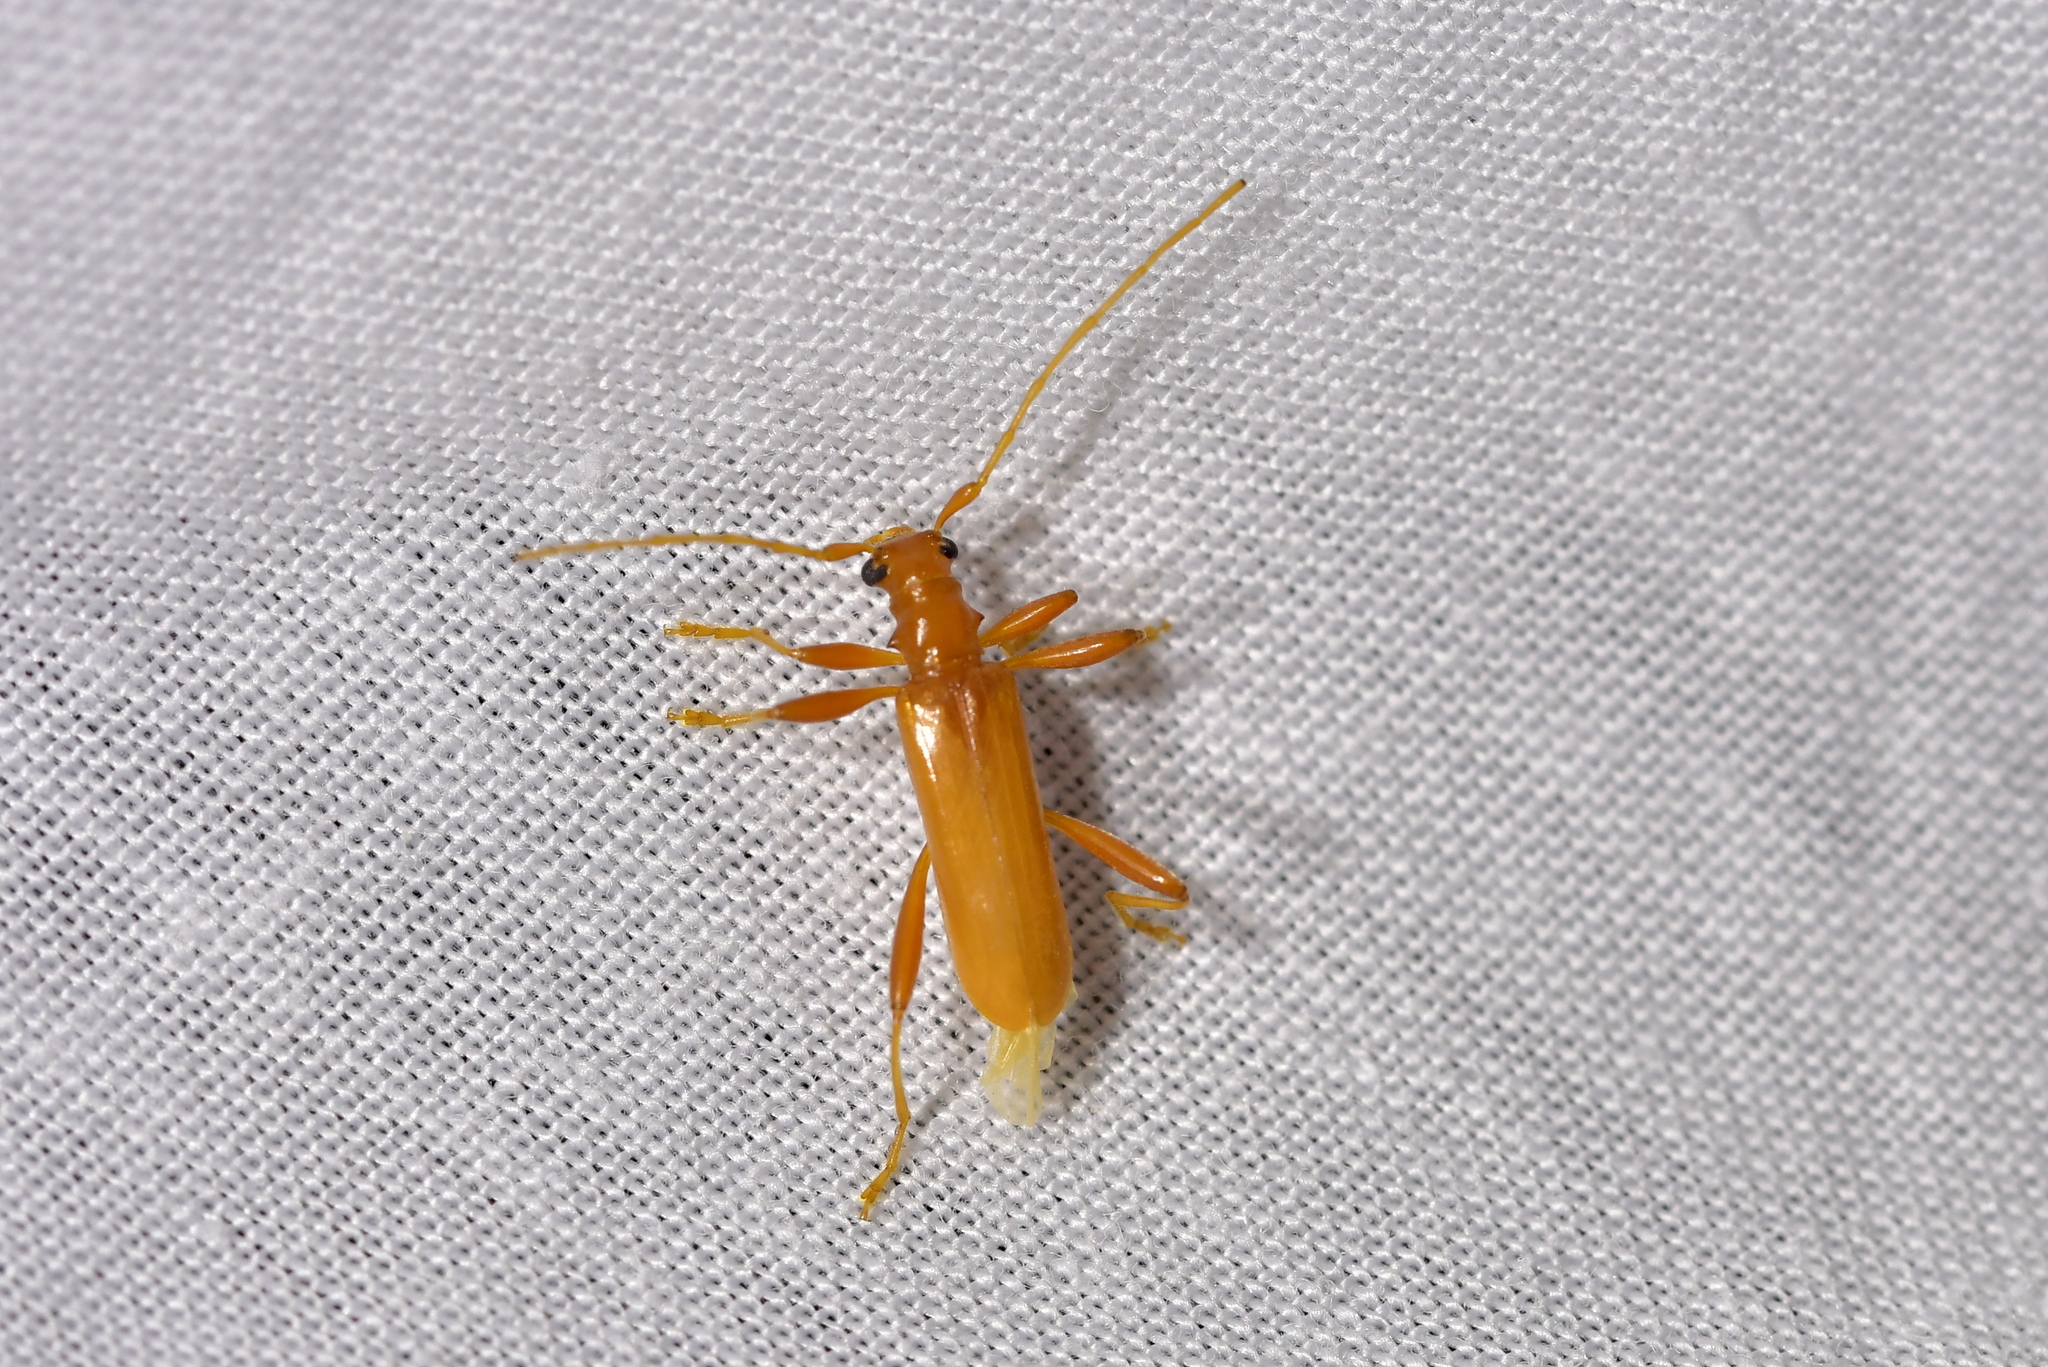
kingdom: Animalia
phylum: Arthropoda
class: Insecta
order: Coleoptera
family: Cerambycidae
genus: Votum
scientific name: Votum munda
